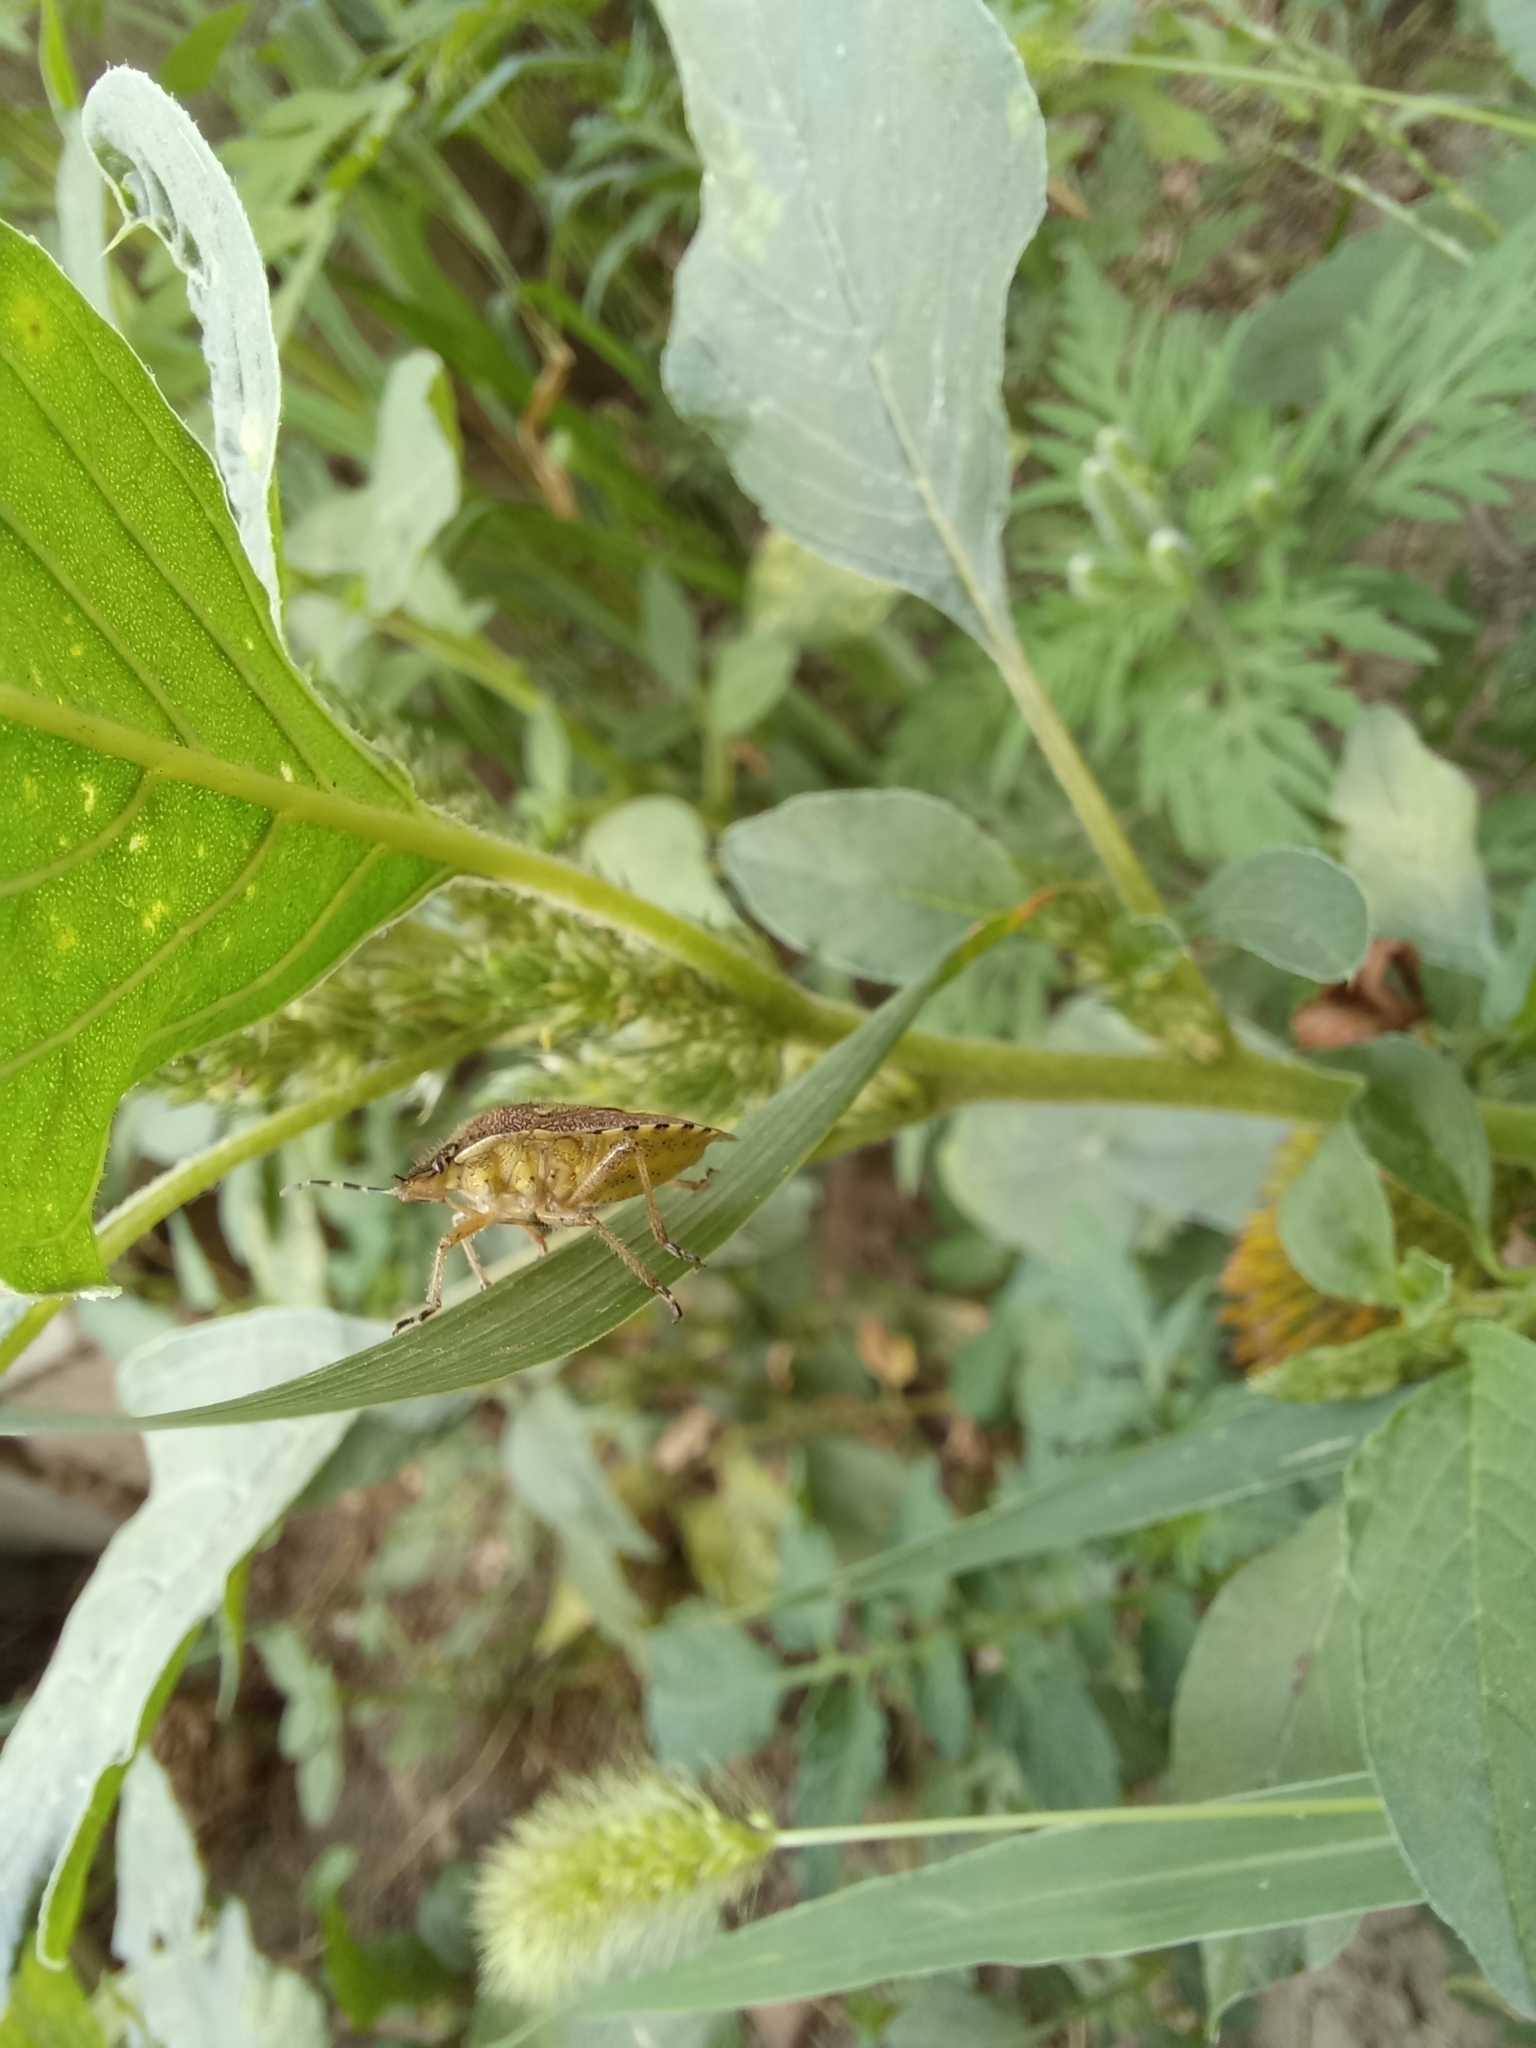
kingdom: Animalia
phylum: Arthropoda
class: Insecta
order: Hemiptera
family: Pentatomidae
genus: Dolycoris
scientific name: Dolycoris baccarum
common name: Sloe bug
